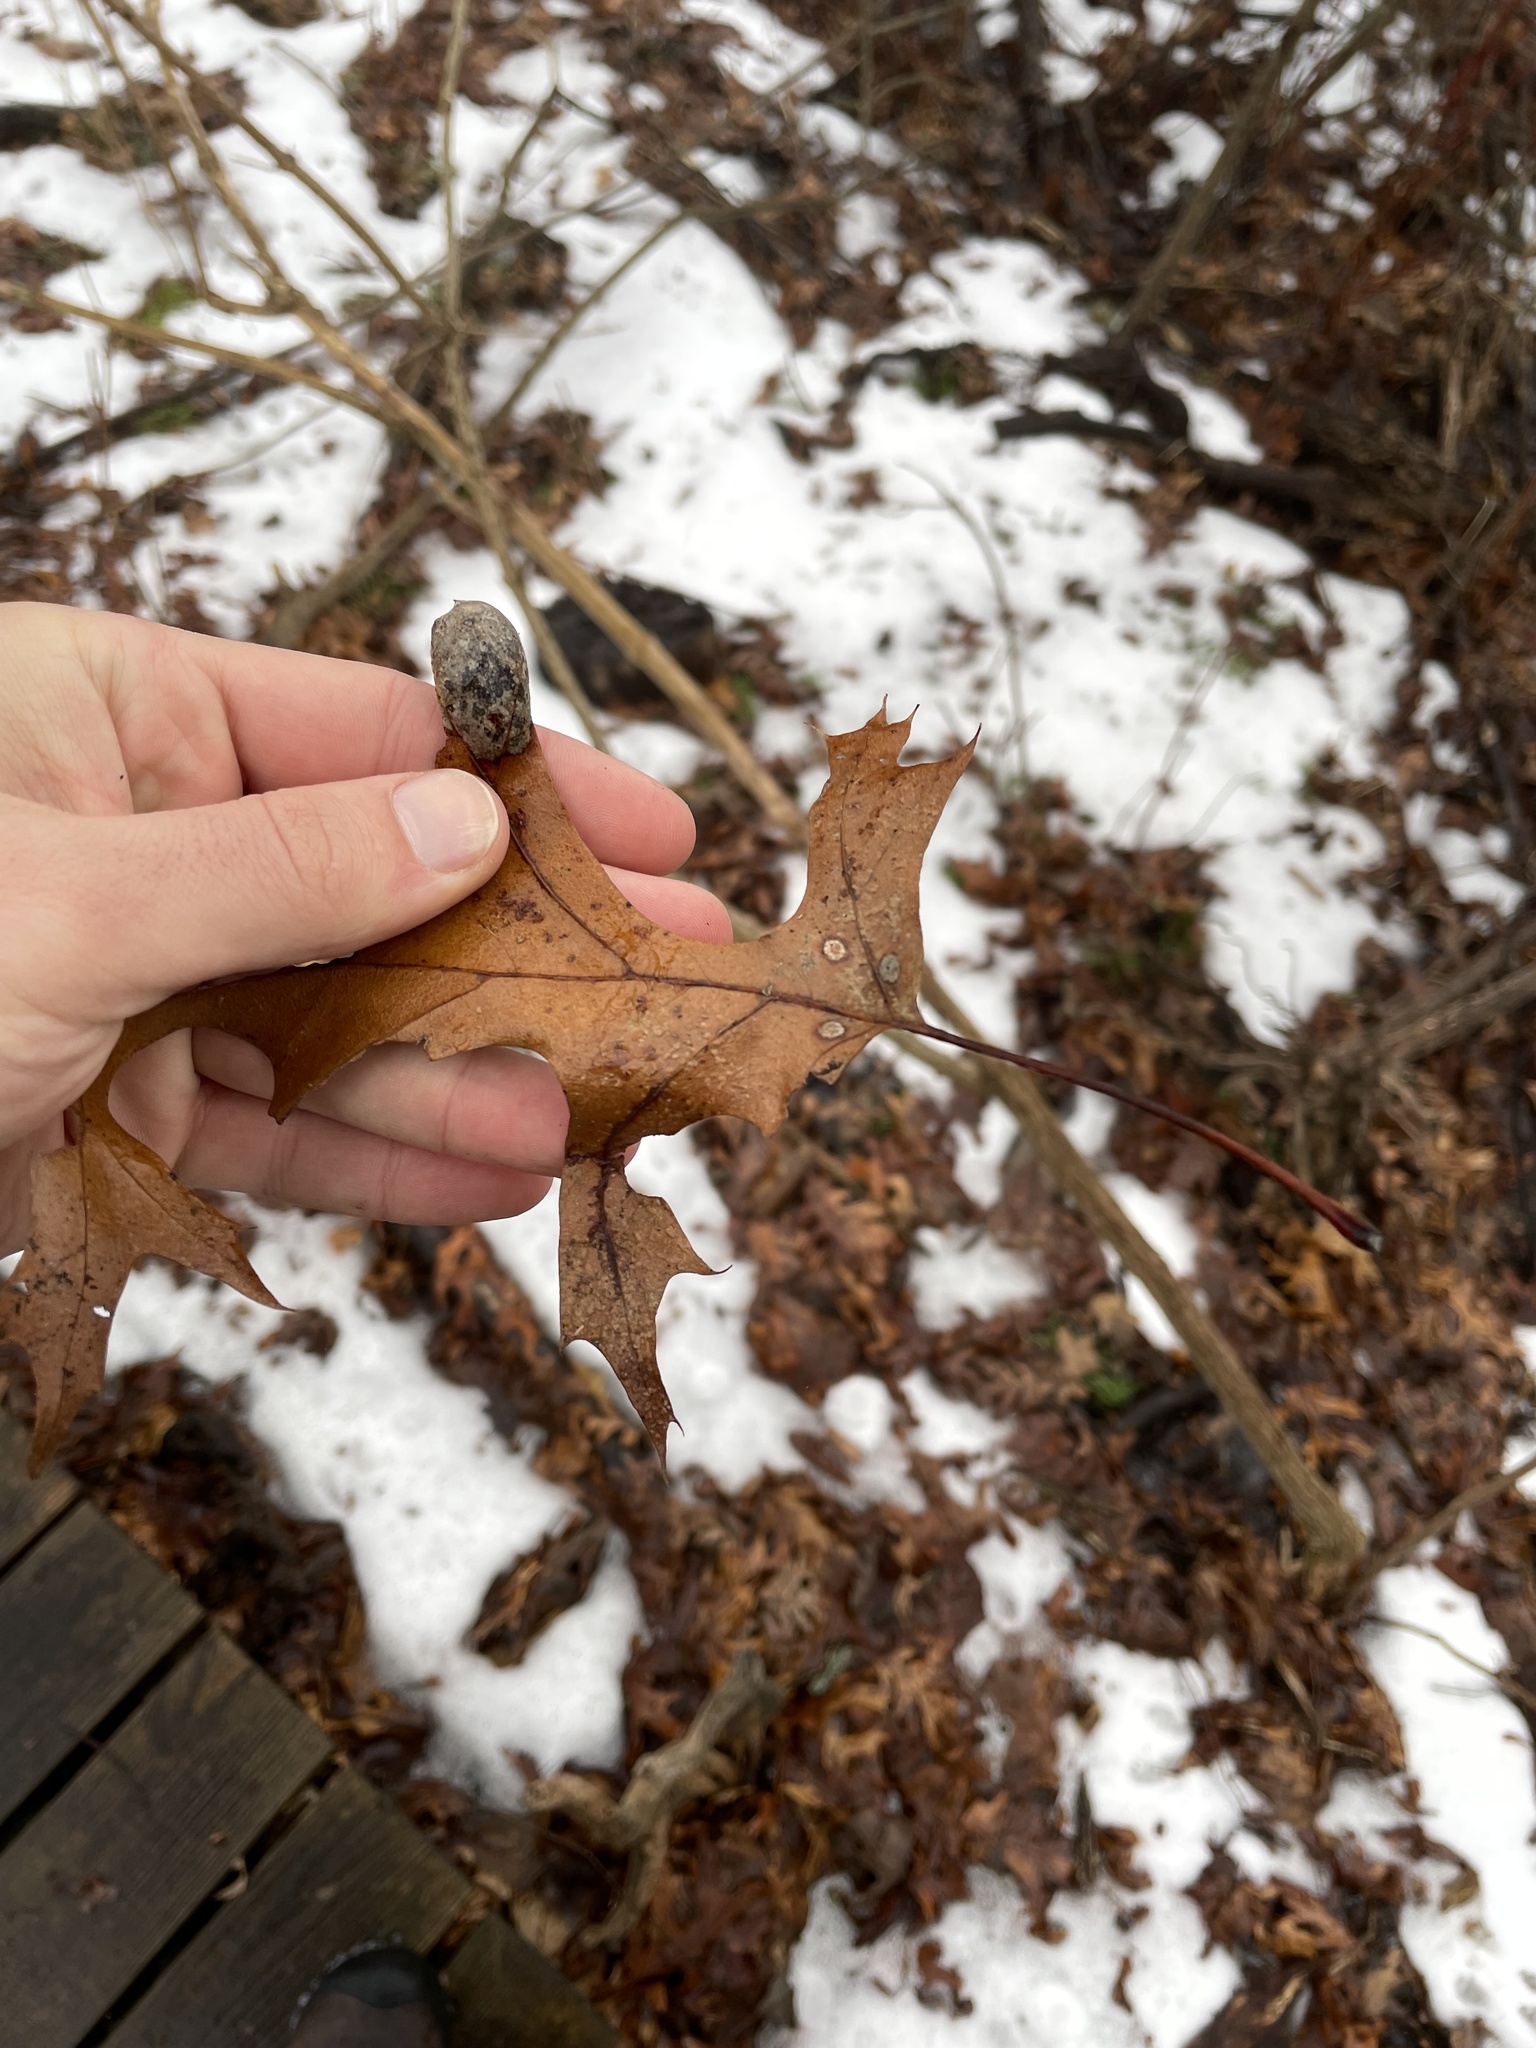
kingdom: Plantae
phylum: Tracheophyta
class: Magnoliopsida
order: Fagales
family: Fagaceae
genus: Quercus
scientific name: Quercus palustris
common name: Pin oak
